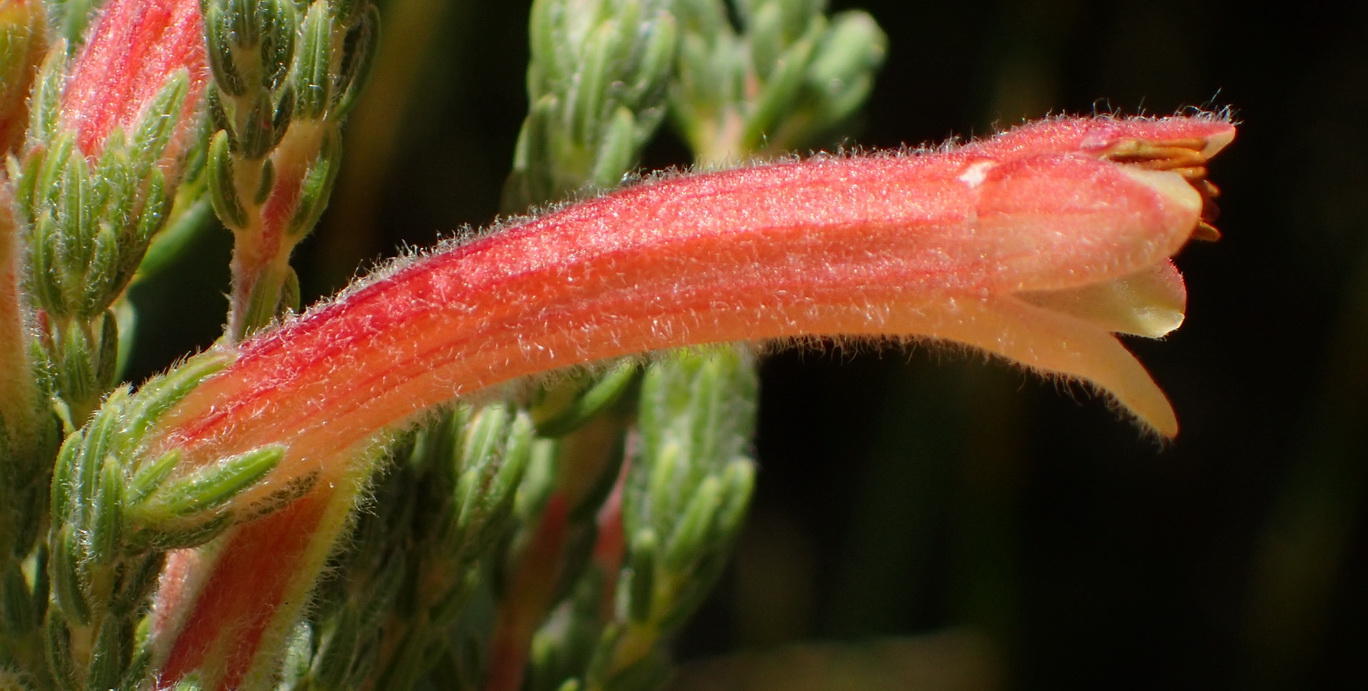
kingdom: Plantae
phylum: Tracheophyta
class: Magnoliopsida
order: Ericales
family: Ericaceae
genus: Erica
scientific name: Erica curviflora
